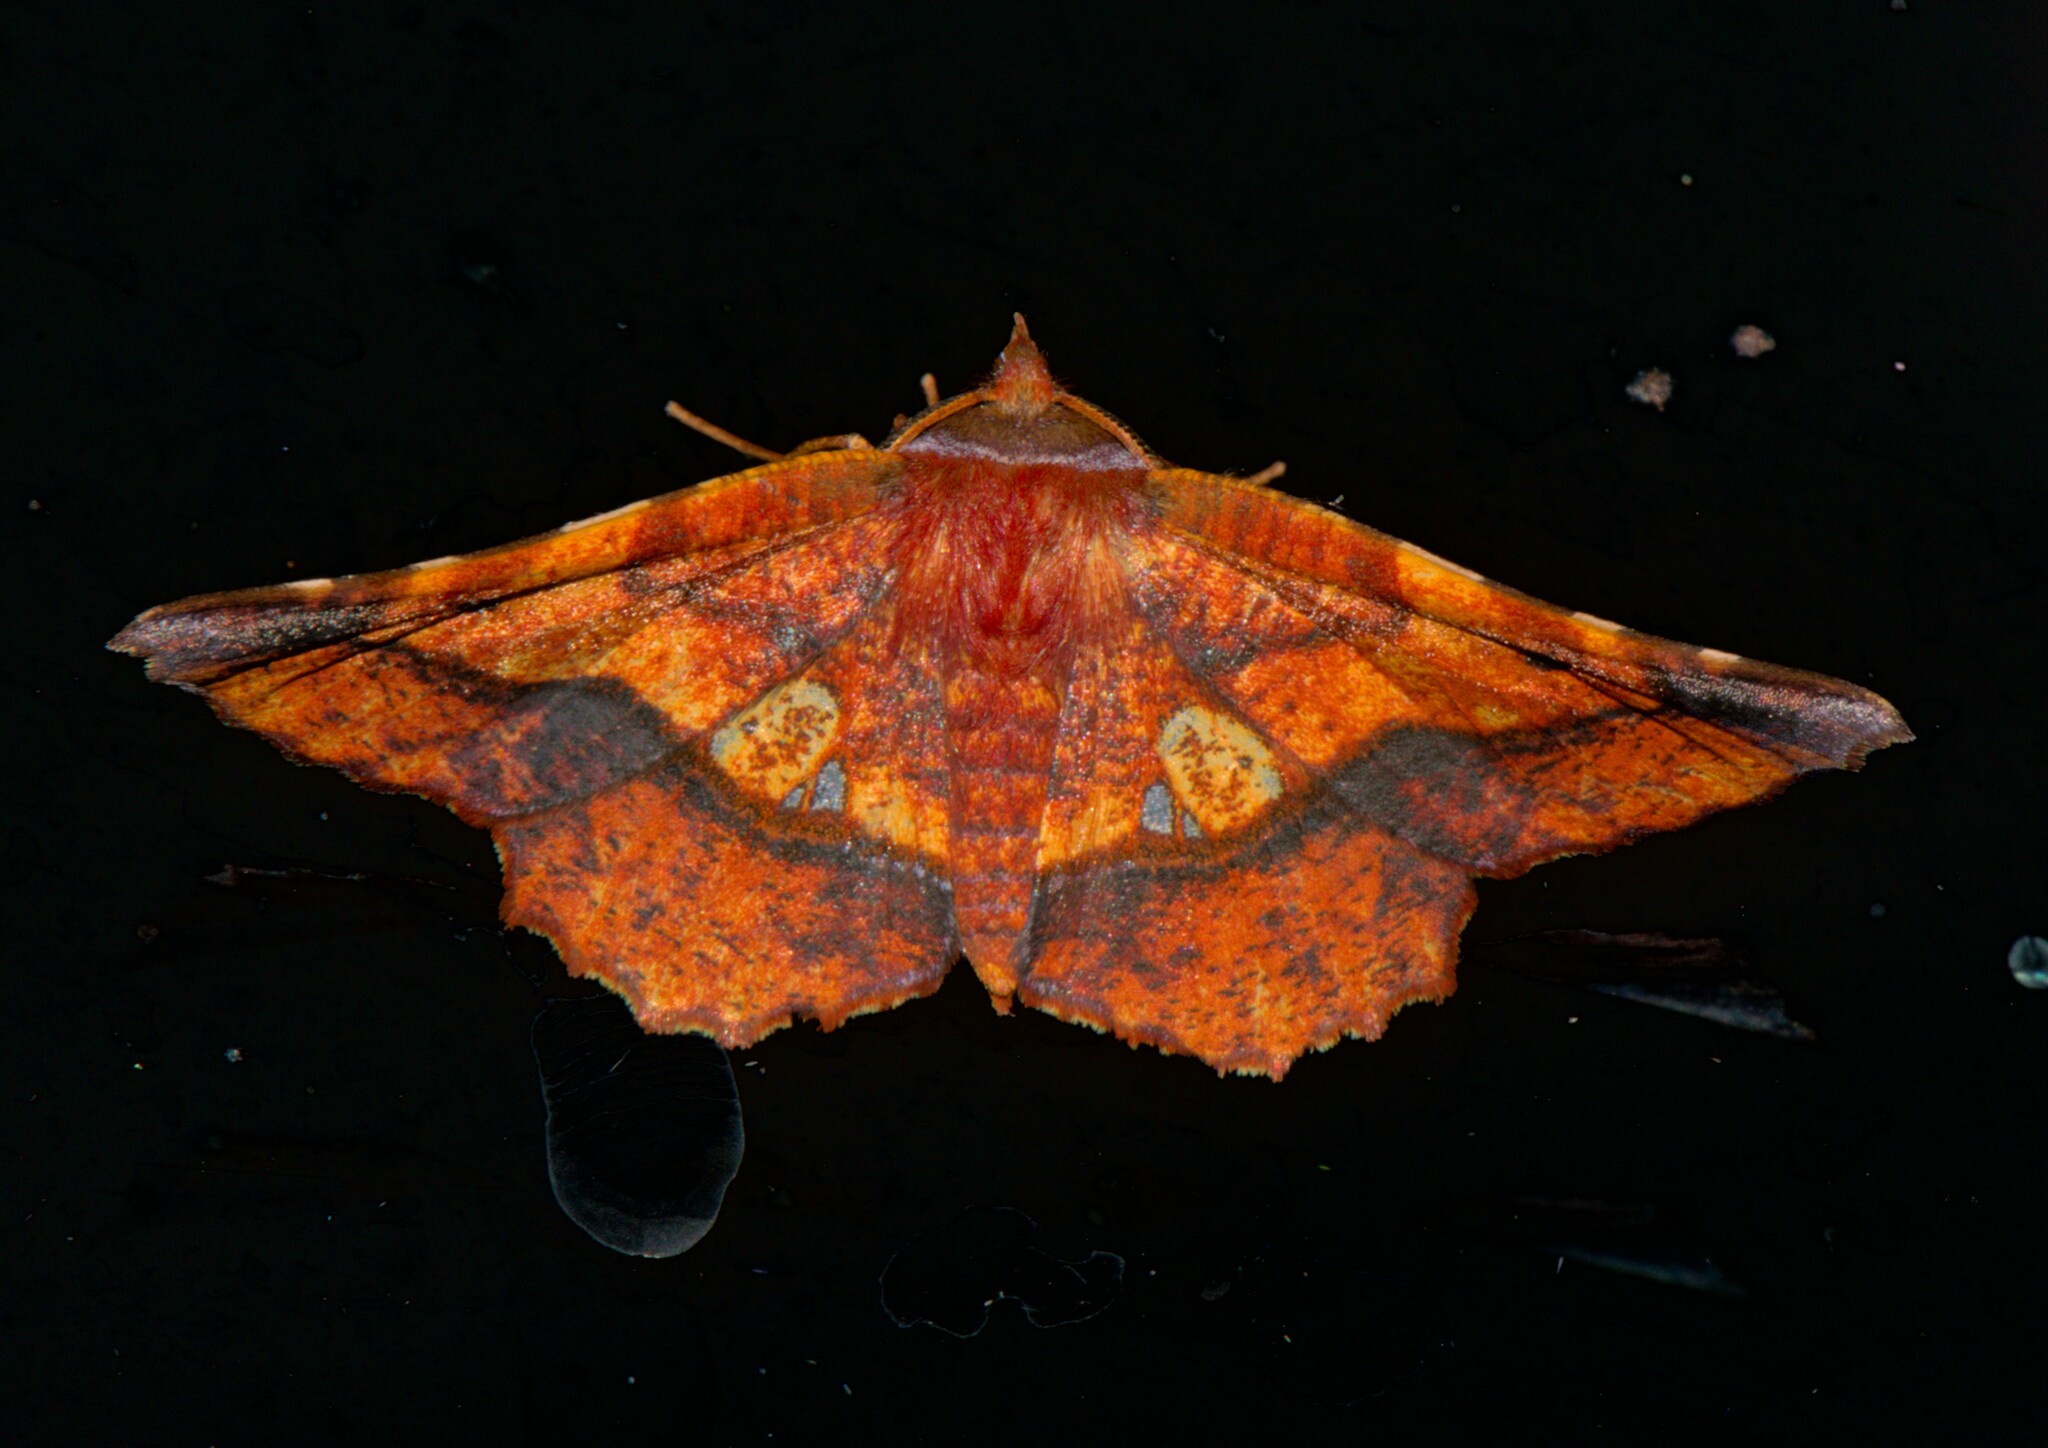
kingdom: Animalia
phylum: Arthropoda
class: Insecta
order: Lepidoptera
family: Geometridae
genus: Garaeus
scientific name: Garaeus specularis
